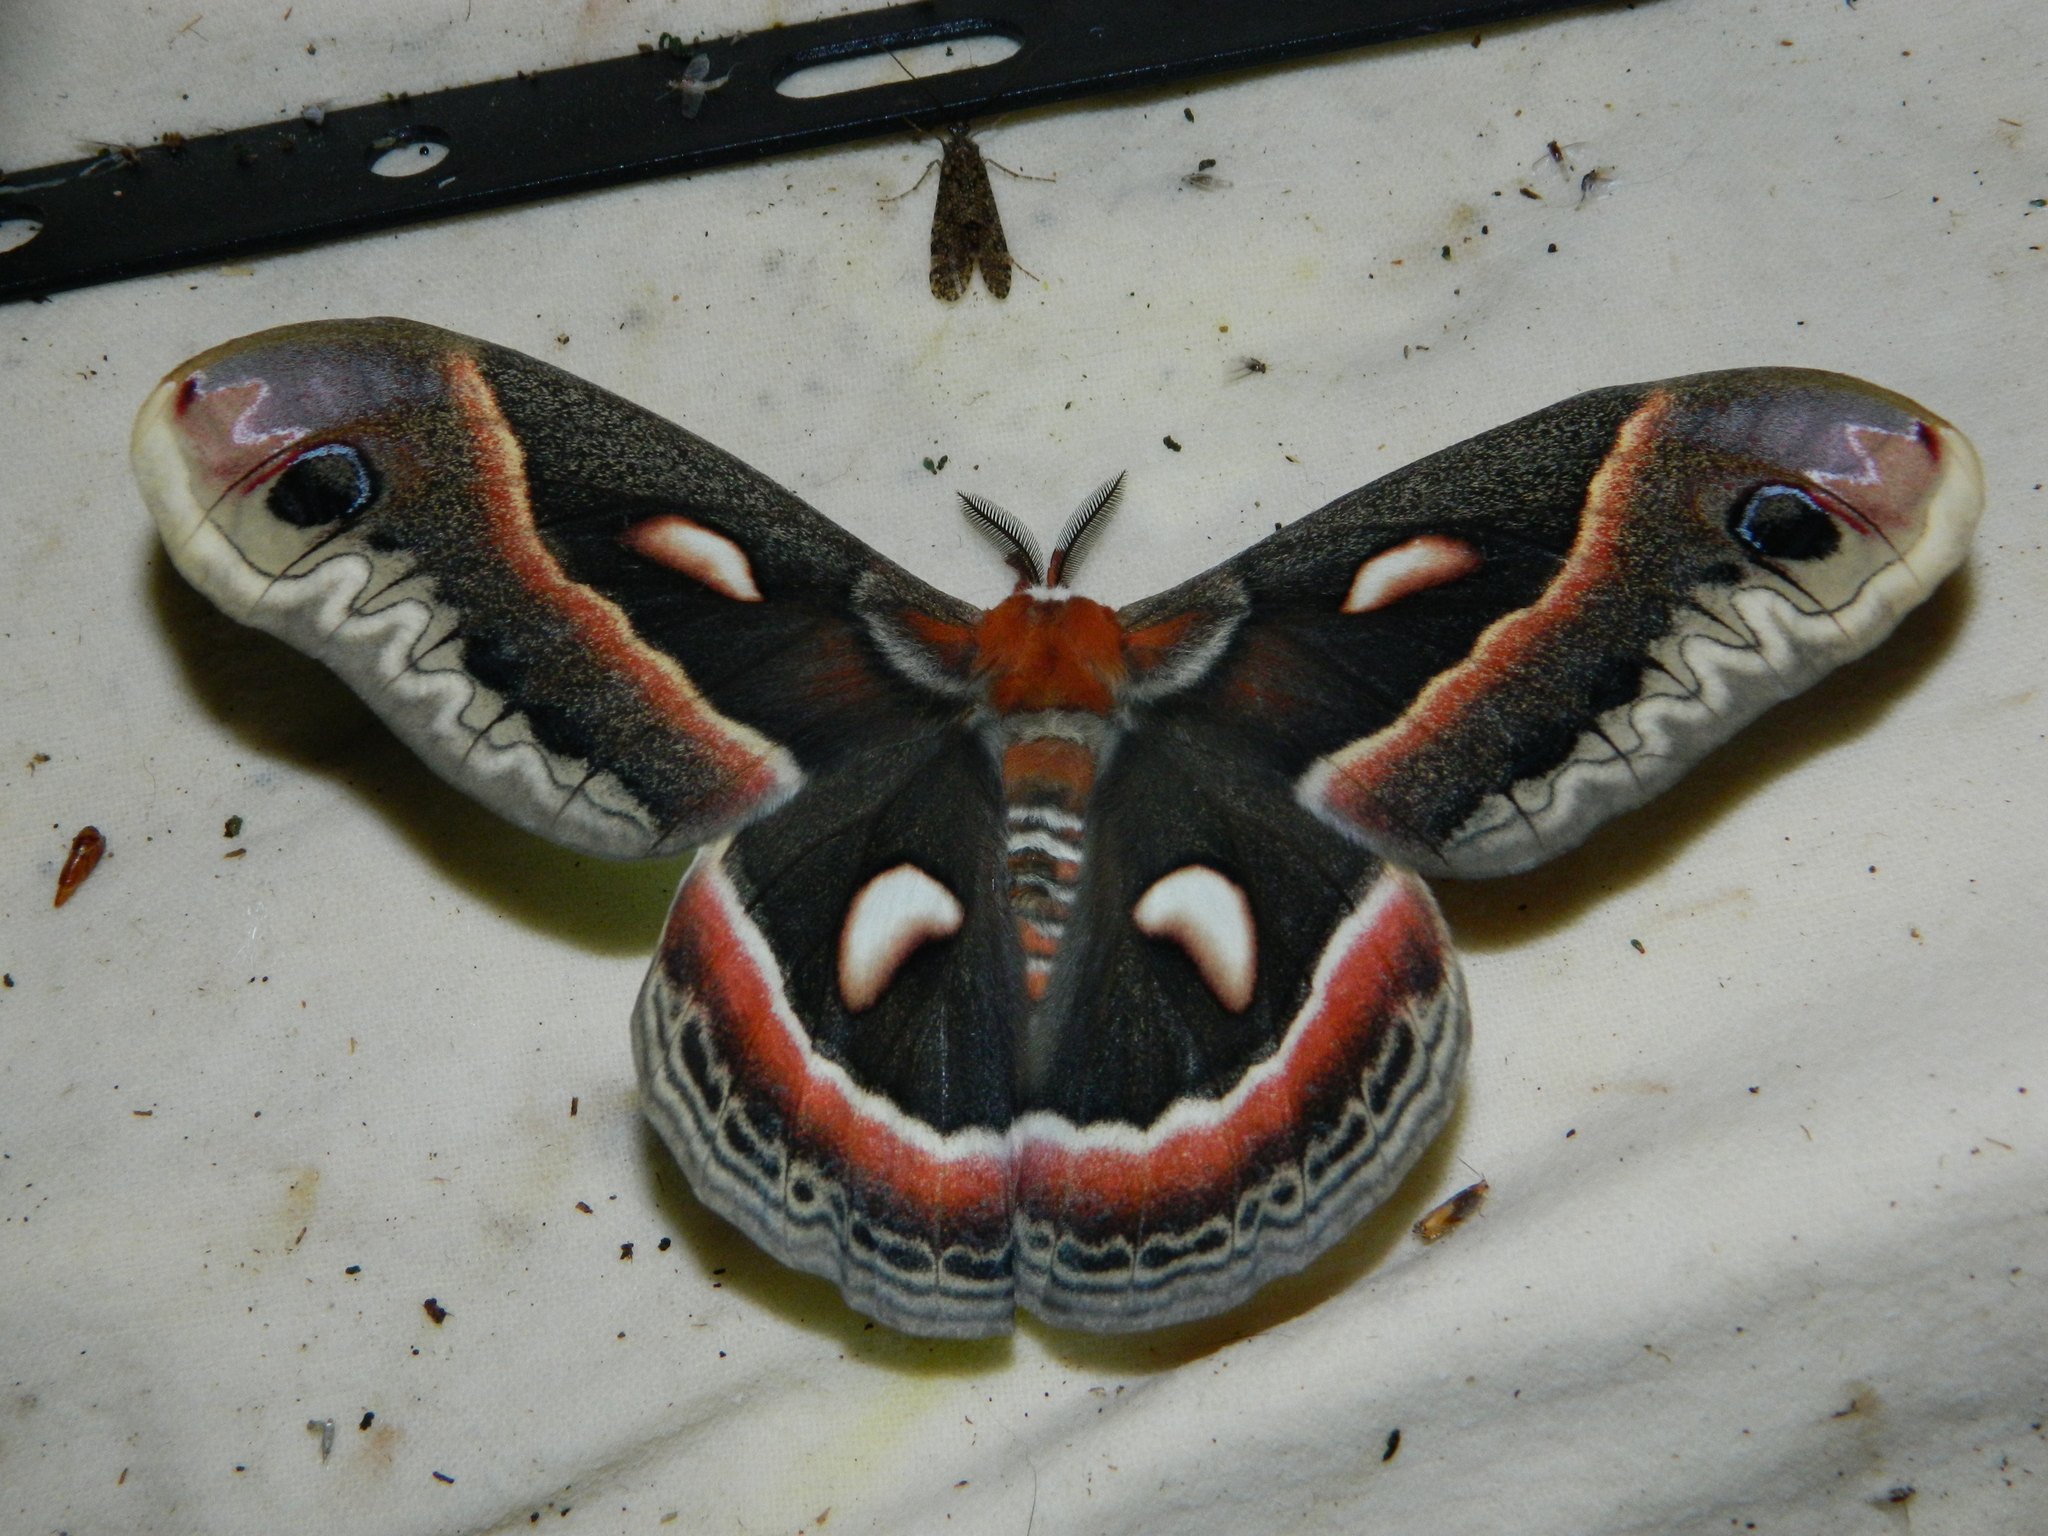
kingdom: Animalia
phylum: Arthropoda
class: Insecta
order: Lepidoptera
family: Saturniidae
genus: Hyalophora
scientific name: Hyalophora cecropia
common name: Cecropia silkmoth
